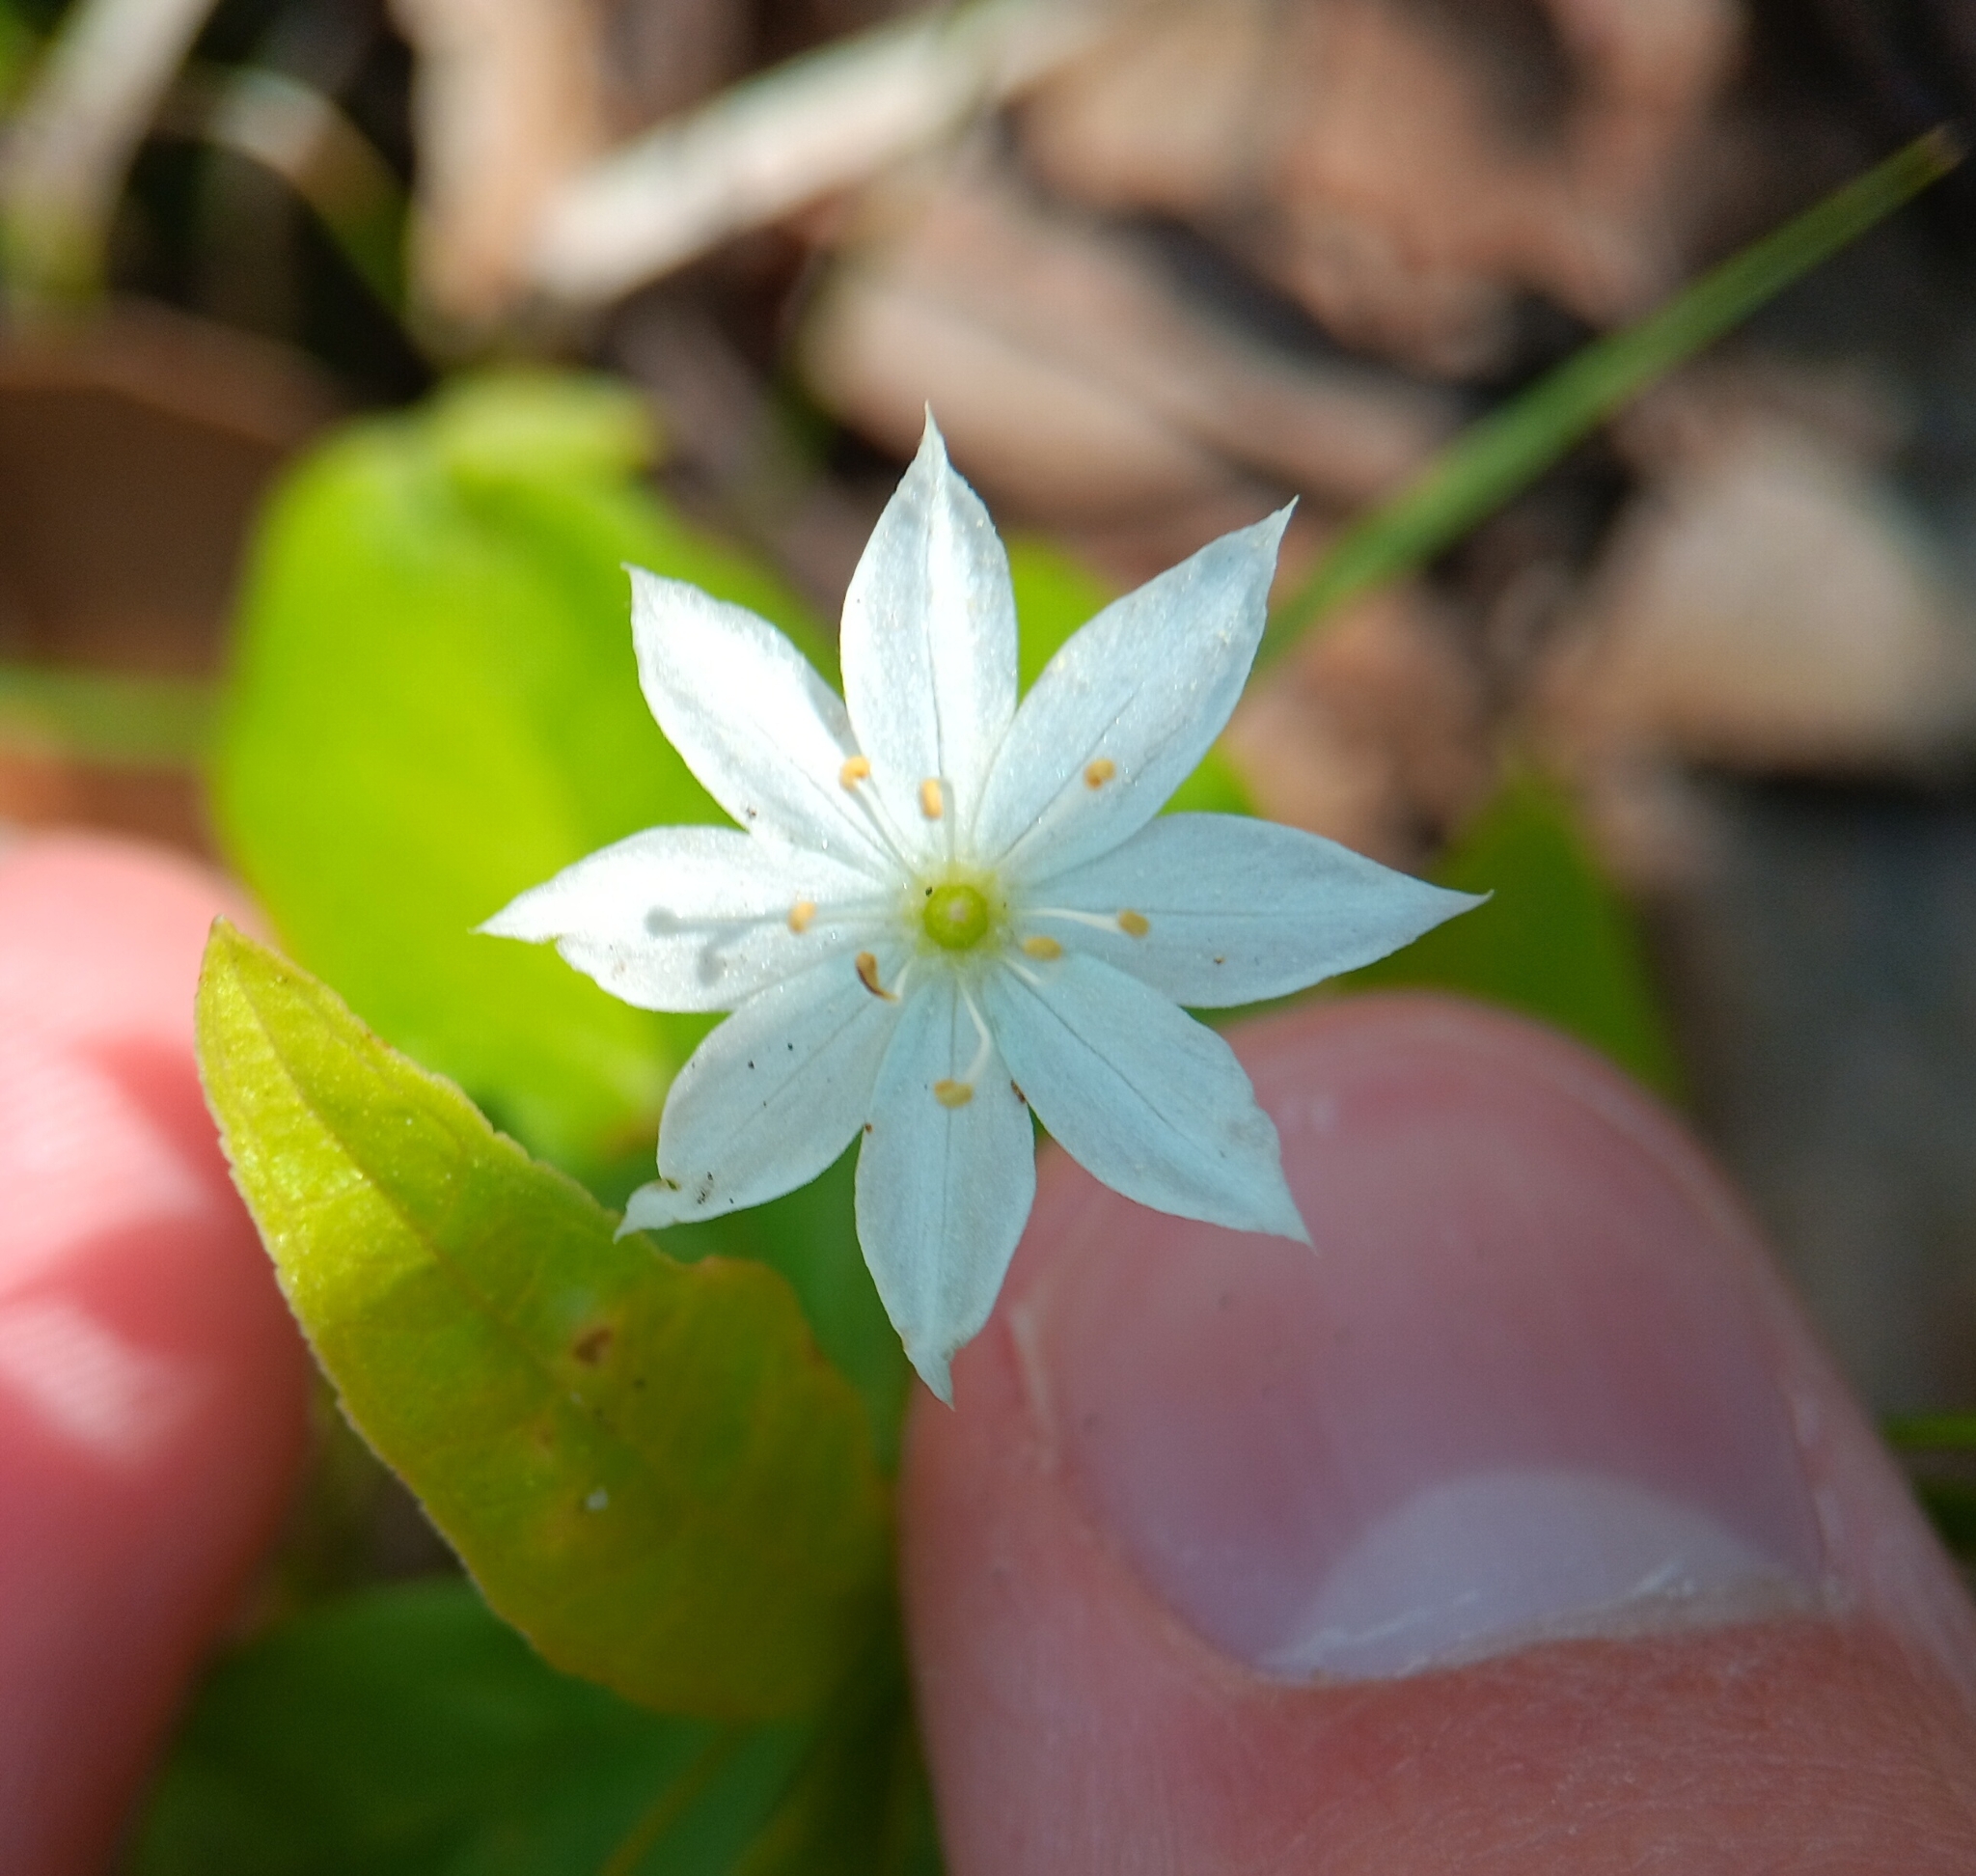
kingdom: Plantae
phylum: Tracheophyta
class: Magnoliopsida
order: Ericales
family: Primulaceae
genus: Lysimachia
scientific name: Lysimachia borealis
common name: American starflower
